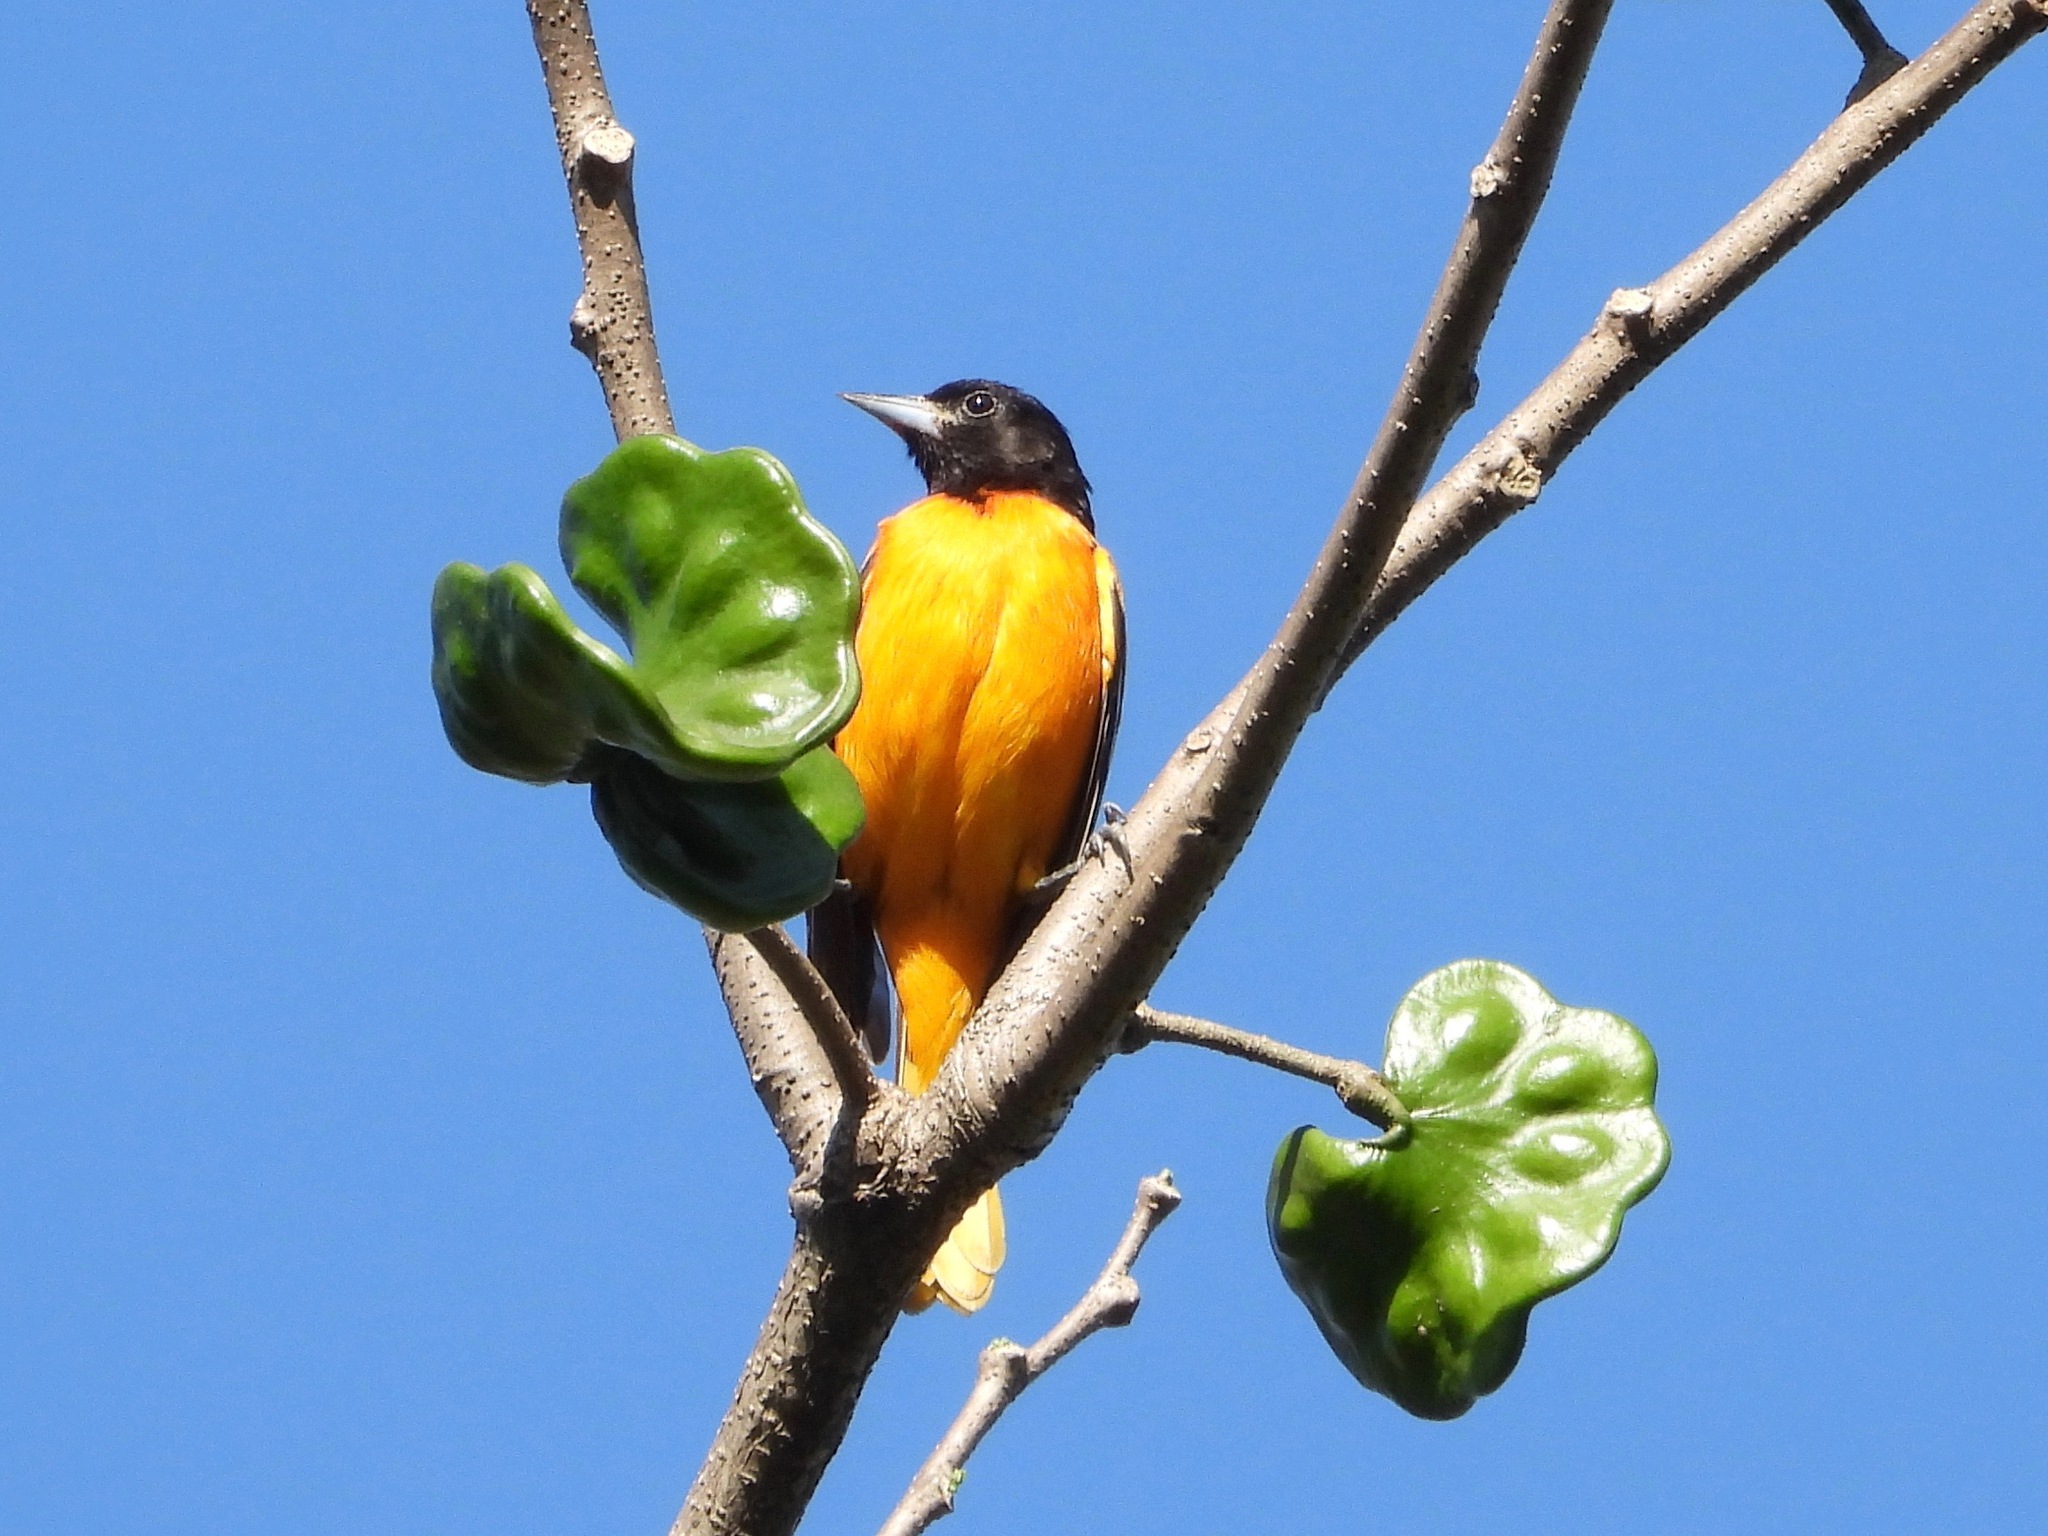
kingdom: Animalia
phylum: Chordata
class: Aves
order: Passeriformes
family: Icteridae
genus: Icterus
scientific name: Icterus galbula
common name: Baltimore oriole
